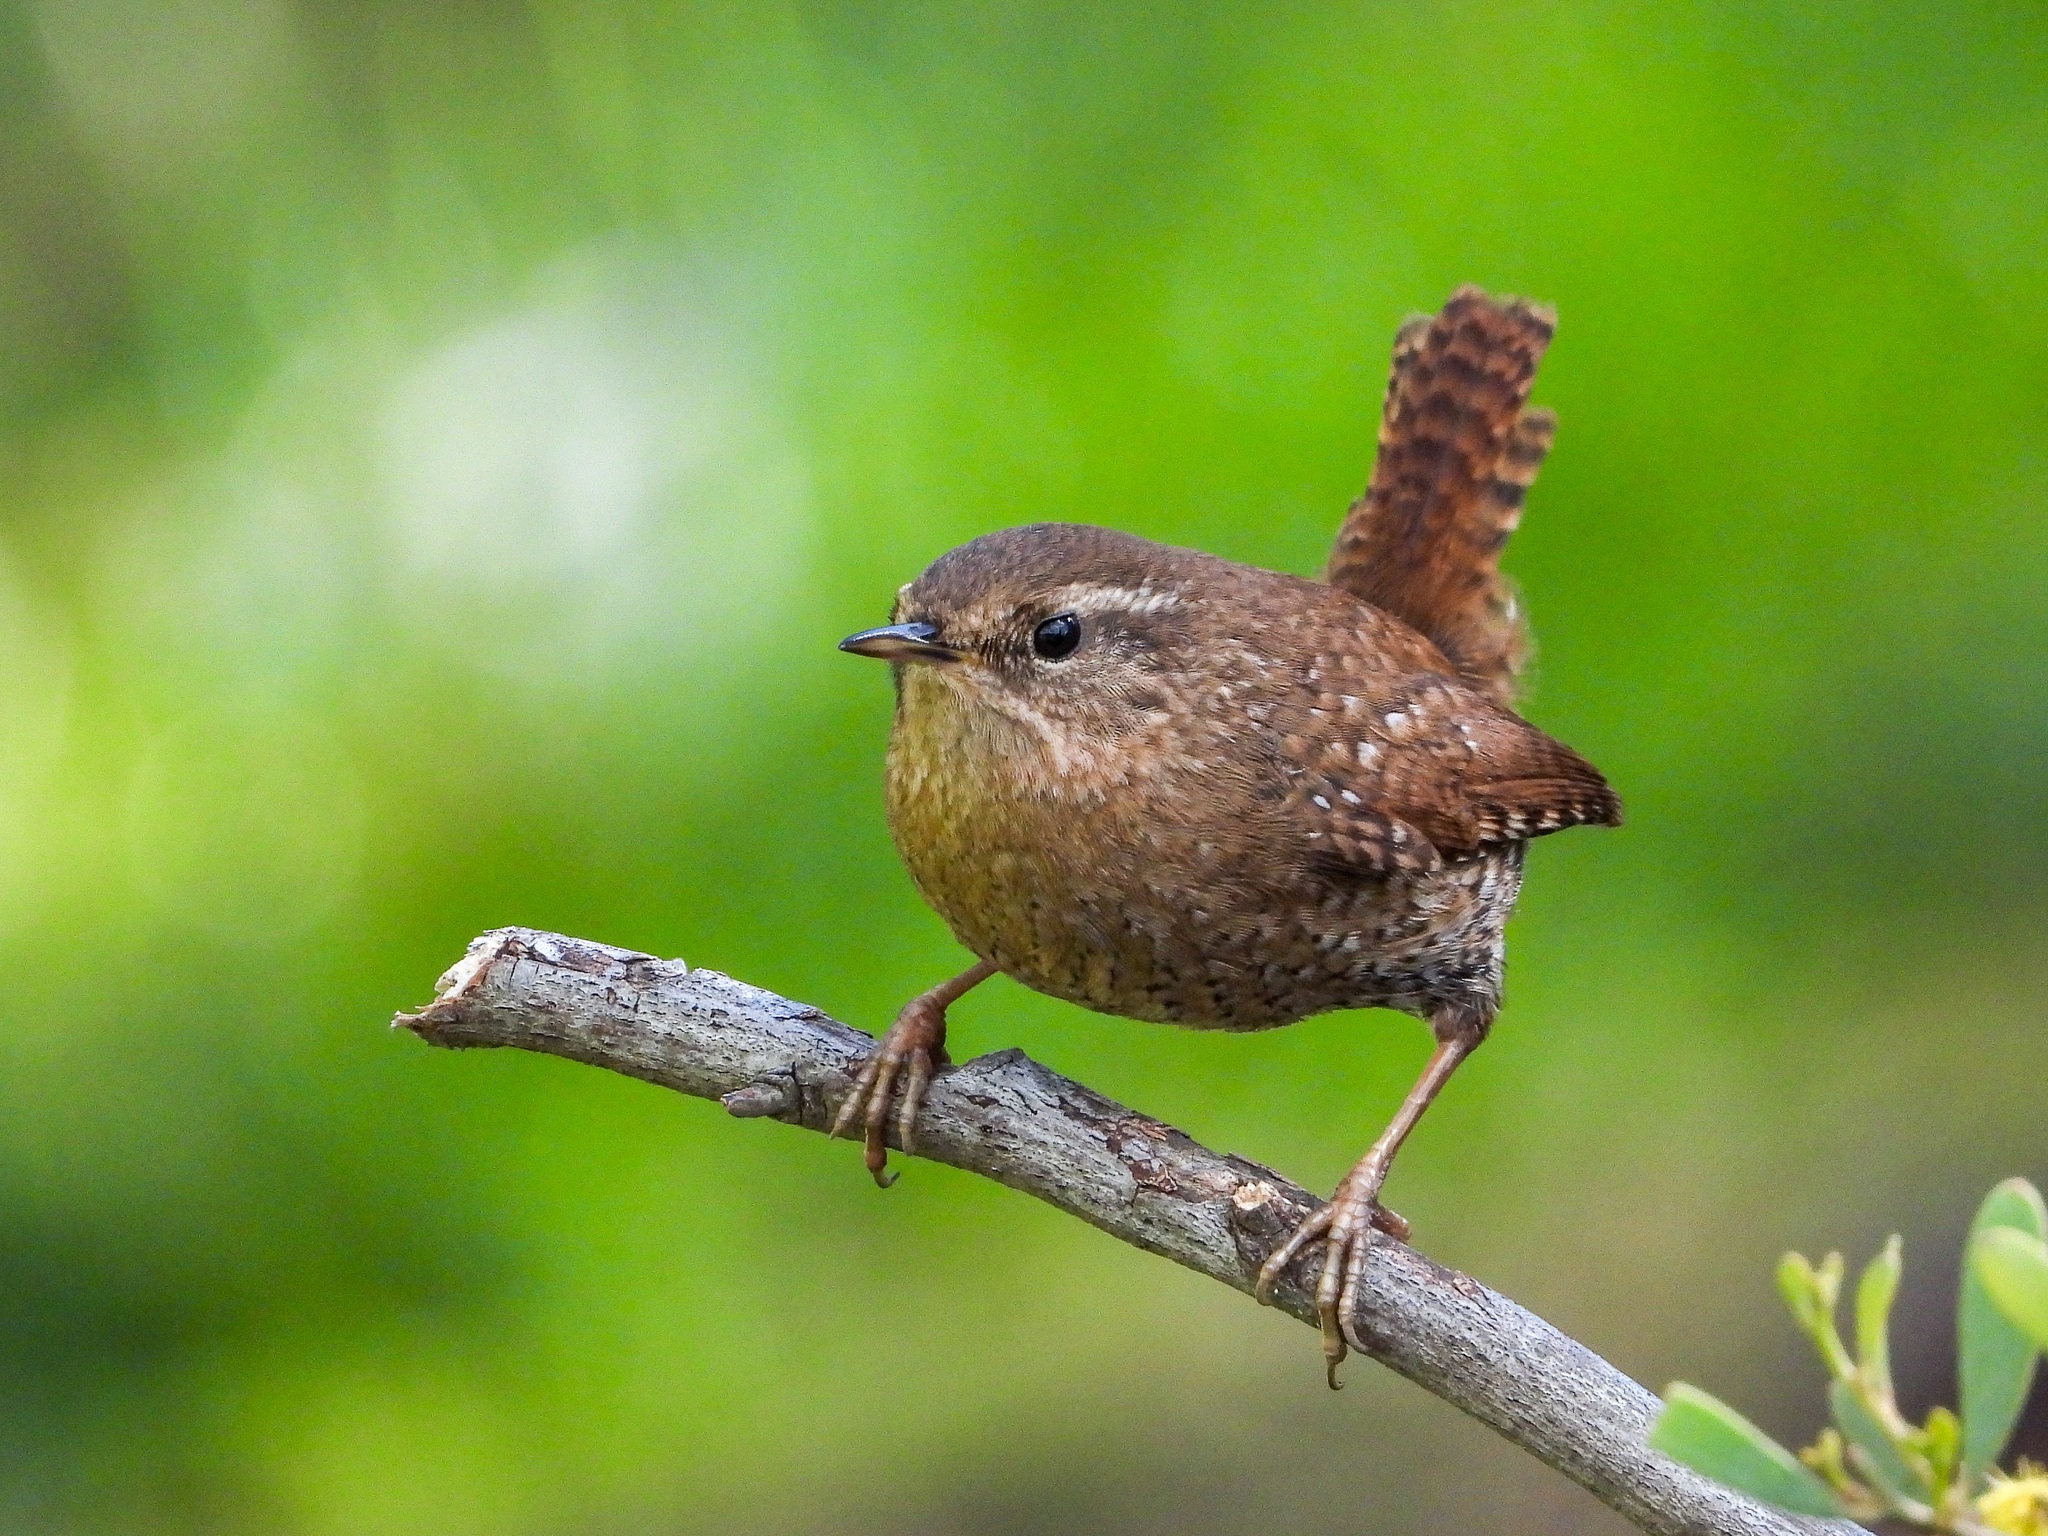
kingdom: Animalia
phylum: Chordata
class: Aves
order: Passeriformes
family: Troglodytidae
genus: Troglodytes
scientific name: Troglodytes pacificus
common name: Pacific wren
